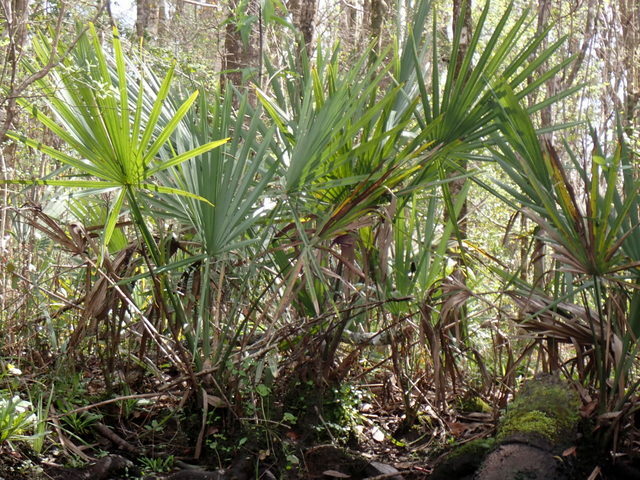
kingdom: Plantae
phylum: Tracheophyta
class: Liliopsida
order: Arecales
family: Arecaceae
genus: Sabal
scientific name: Sabal minor
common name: Dwarf palmetto
